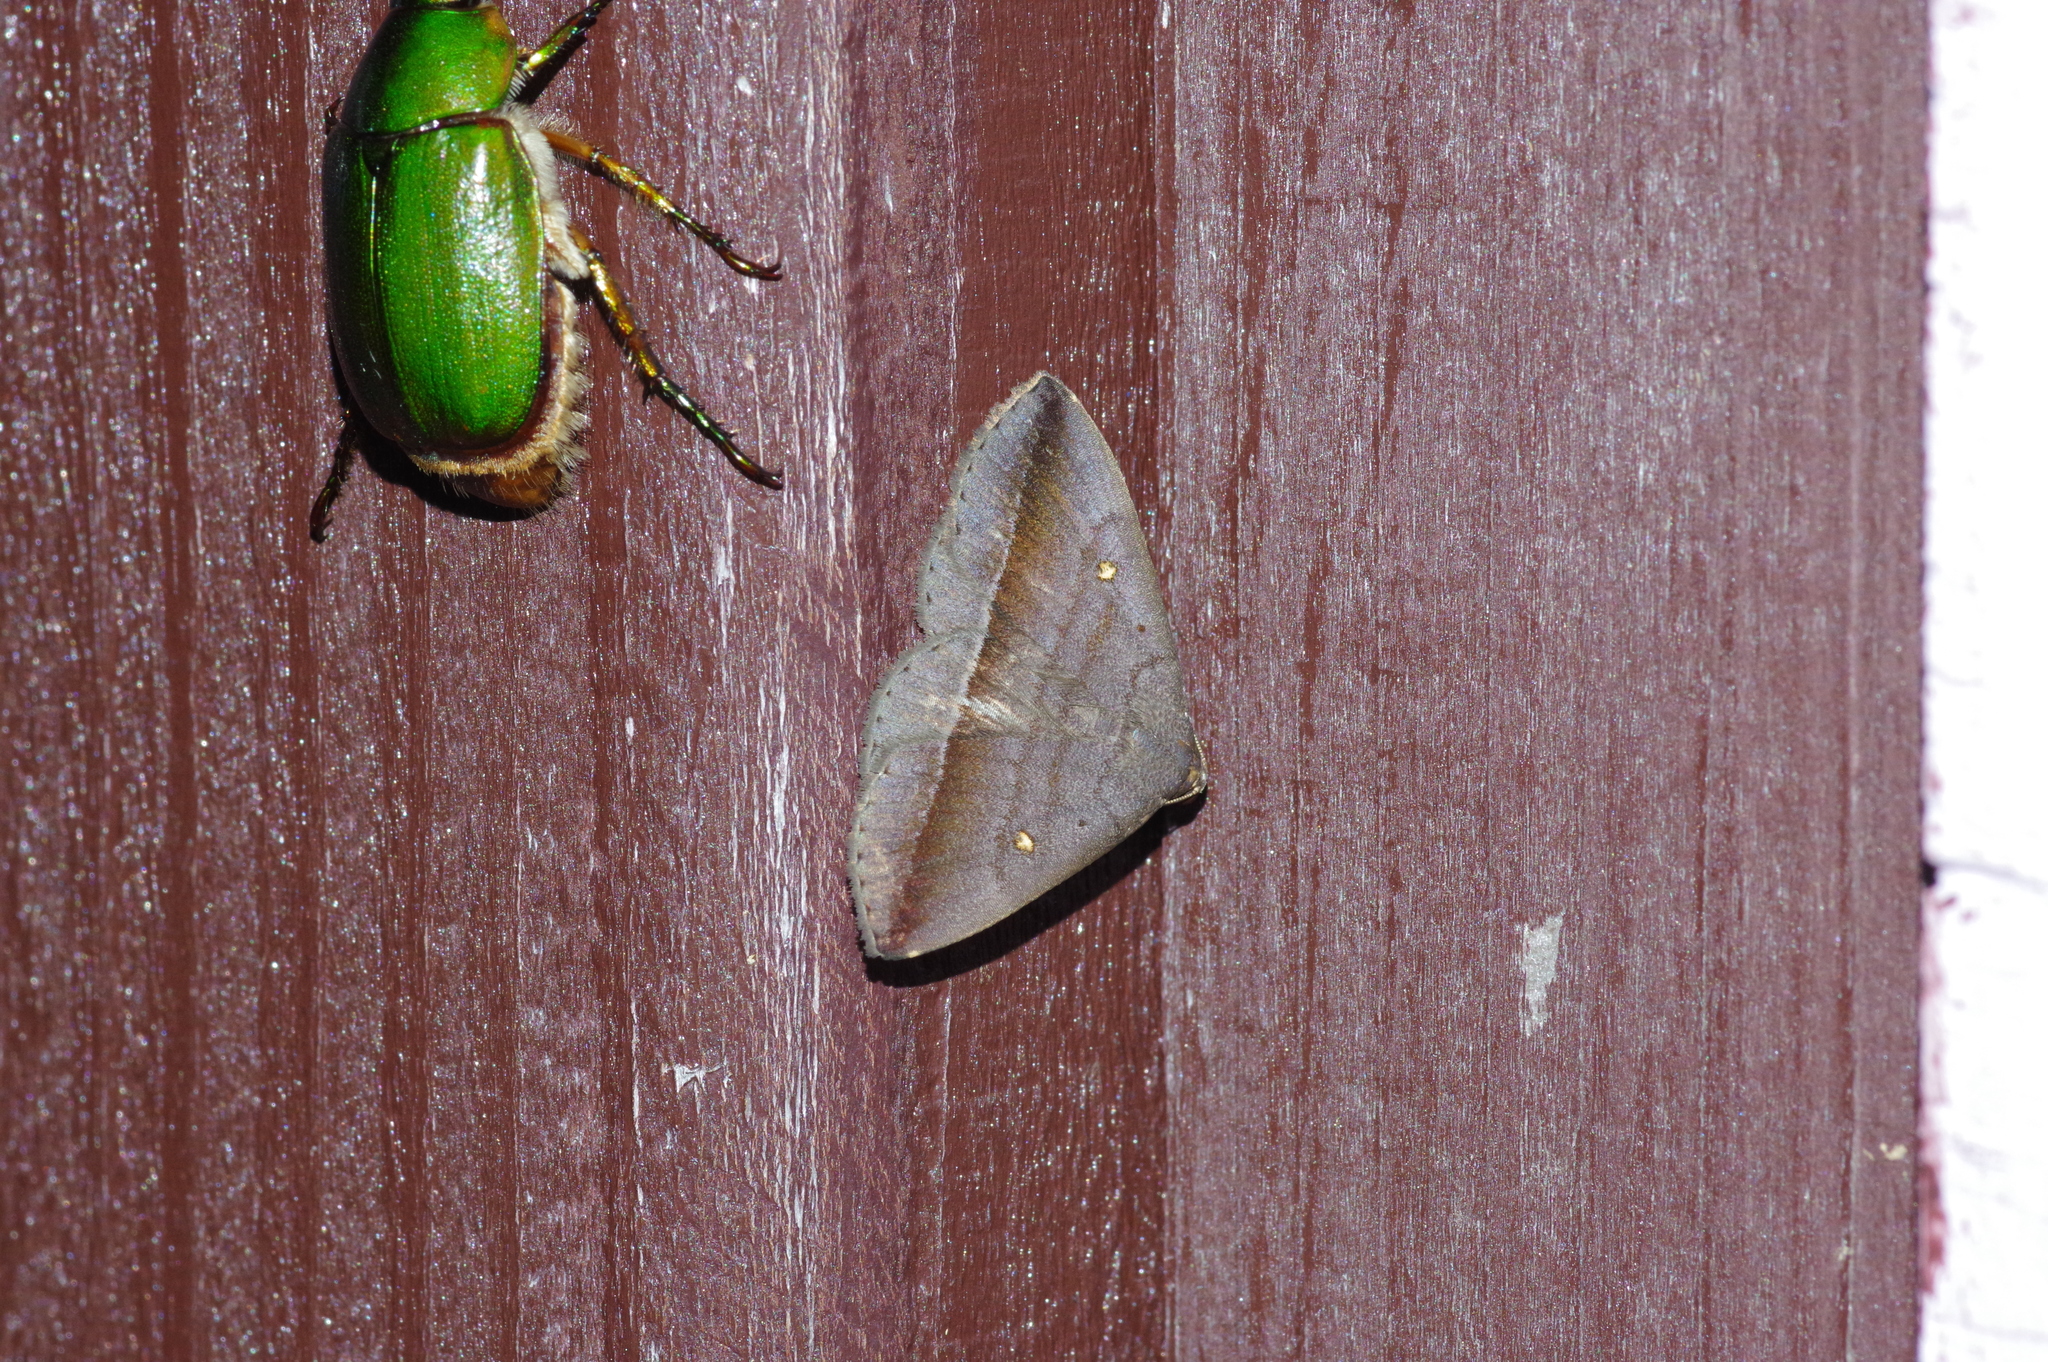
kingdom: Animalia
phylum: Arthropoda
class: Insecta
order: Lepidoptera
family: Erebidae
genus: Hadennia
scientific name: Hadennia
